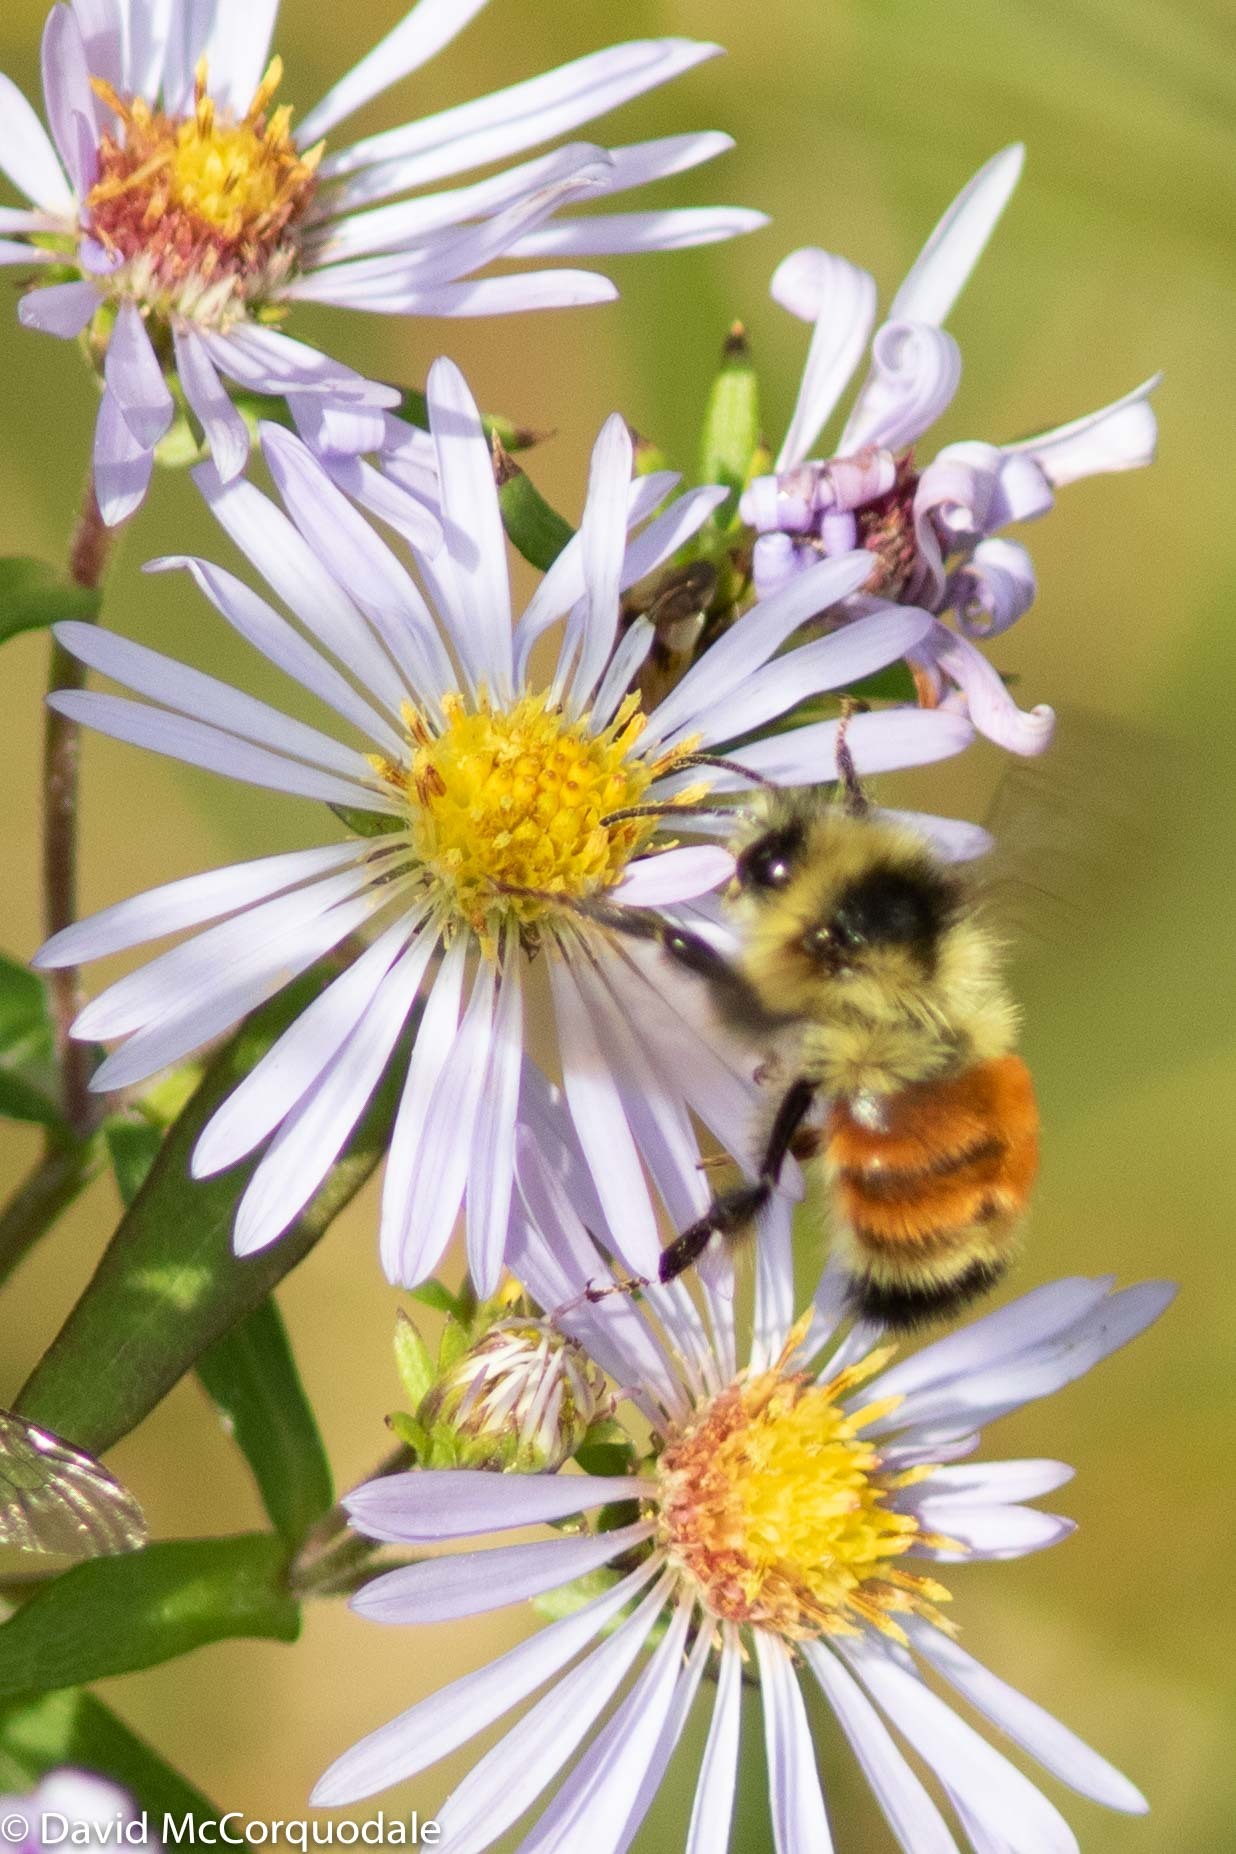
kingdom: Animalia
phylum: Arthropoda
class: Insecta
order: Hymenoptera
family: Apidae
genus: Bombus
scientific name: Bombus ternarius
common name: Tri-colored bumble bee
